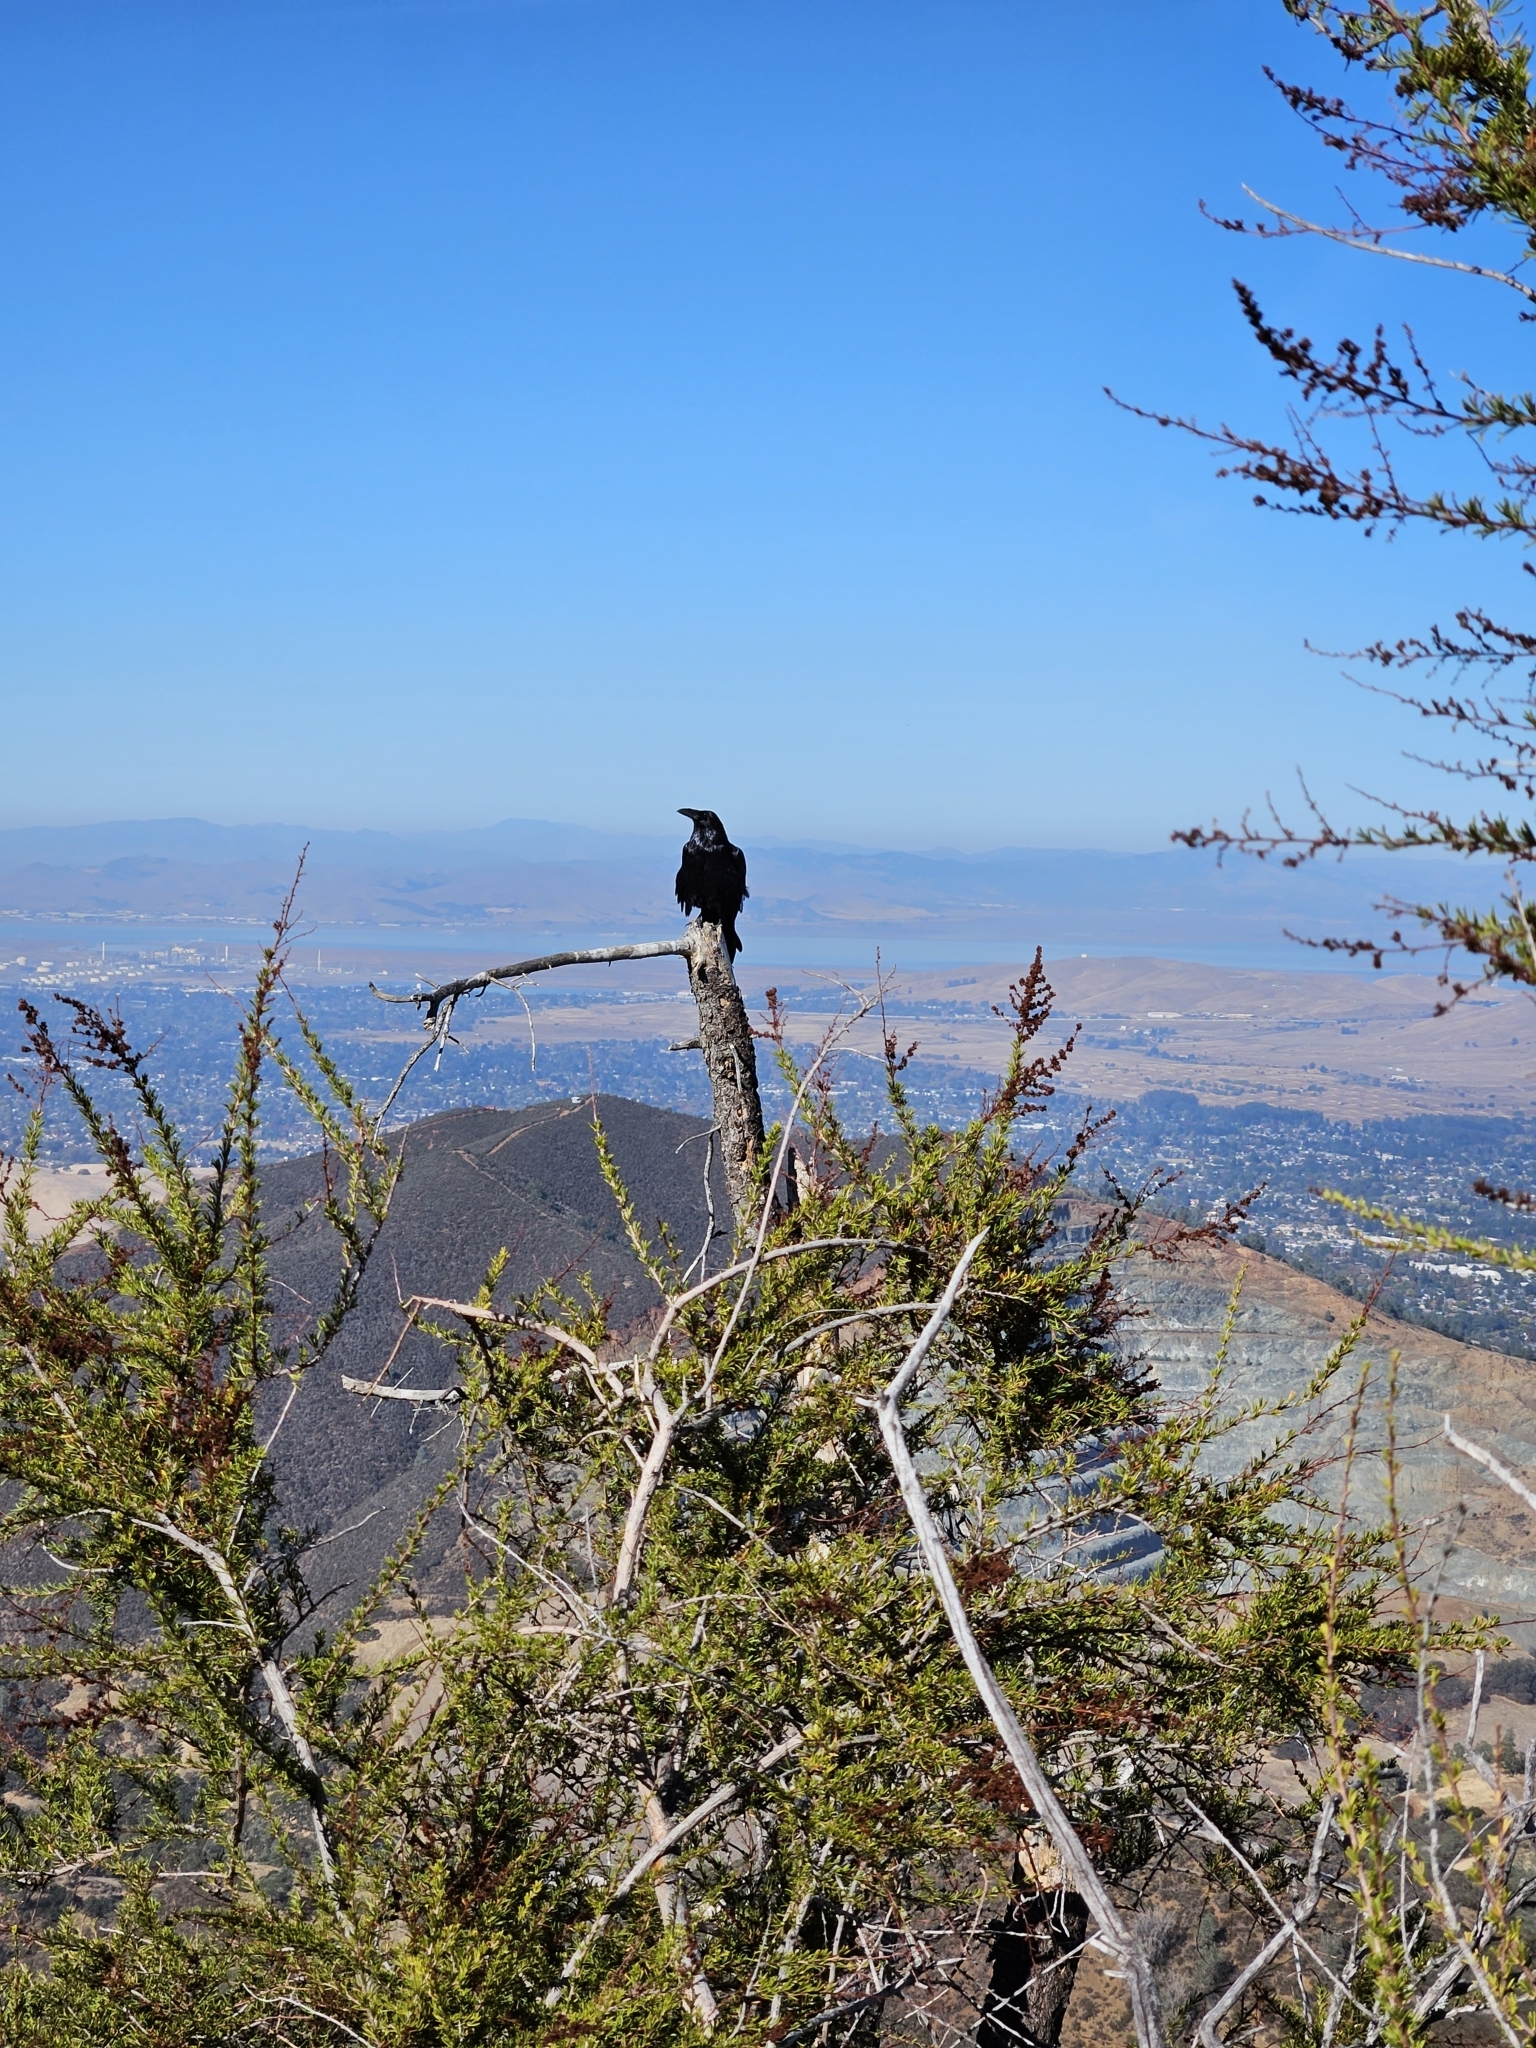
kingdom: Animalia
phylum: Chordata
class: Aves
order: Passeriformes
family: Corvidae
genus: Corvus
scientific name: Corvus corax
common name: Common raven
